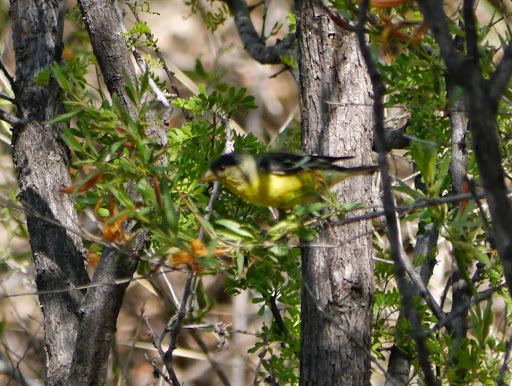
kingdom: Animalia
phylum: Chordata
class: Aves
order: Passeriformes
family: Fringillidae
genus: Spinus
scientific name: Spinus psaltria
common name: Lesser goldfinch
